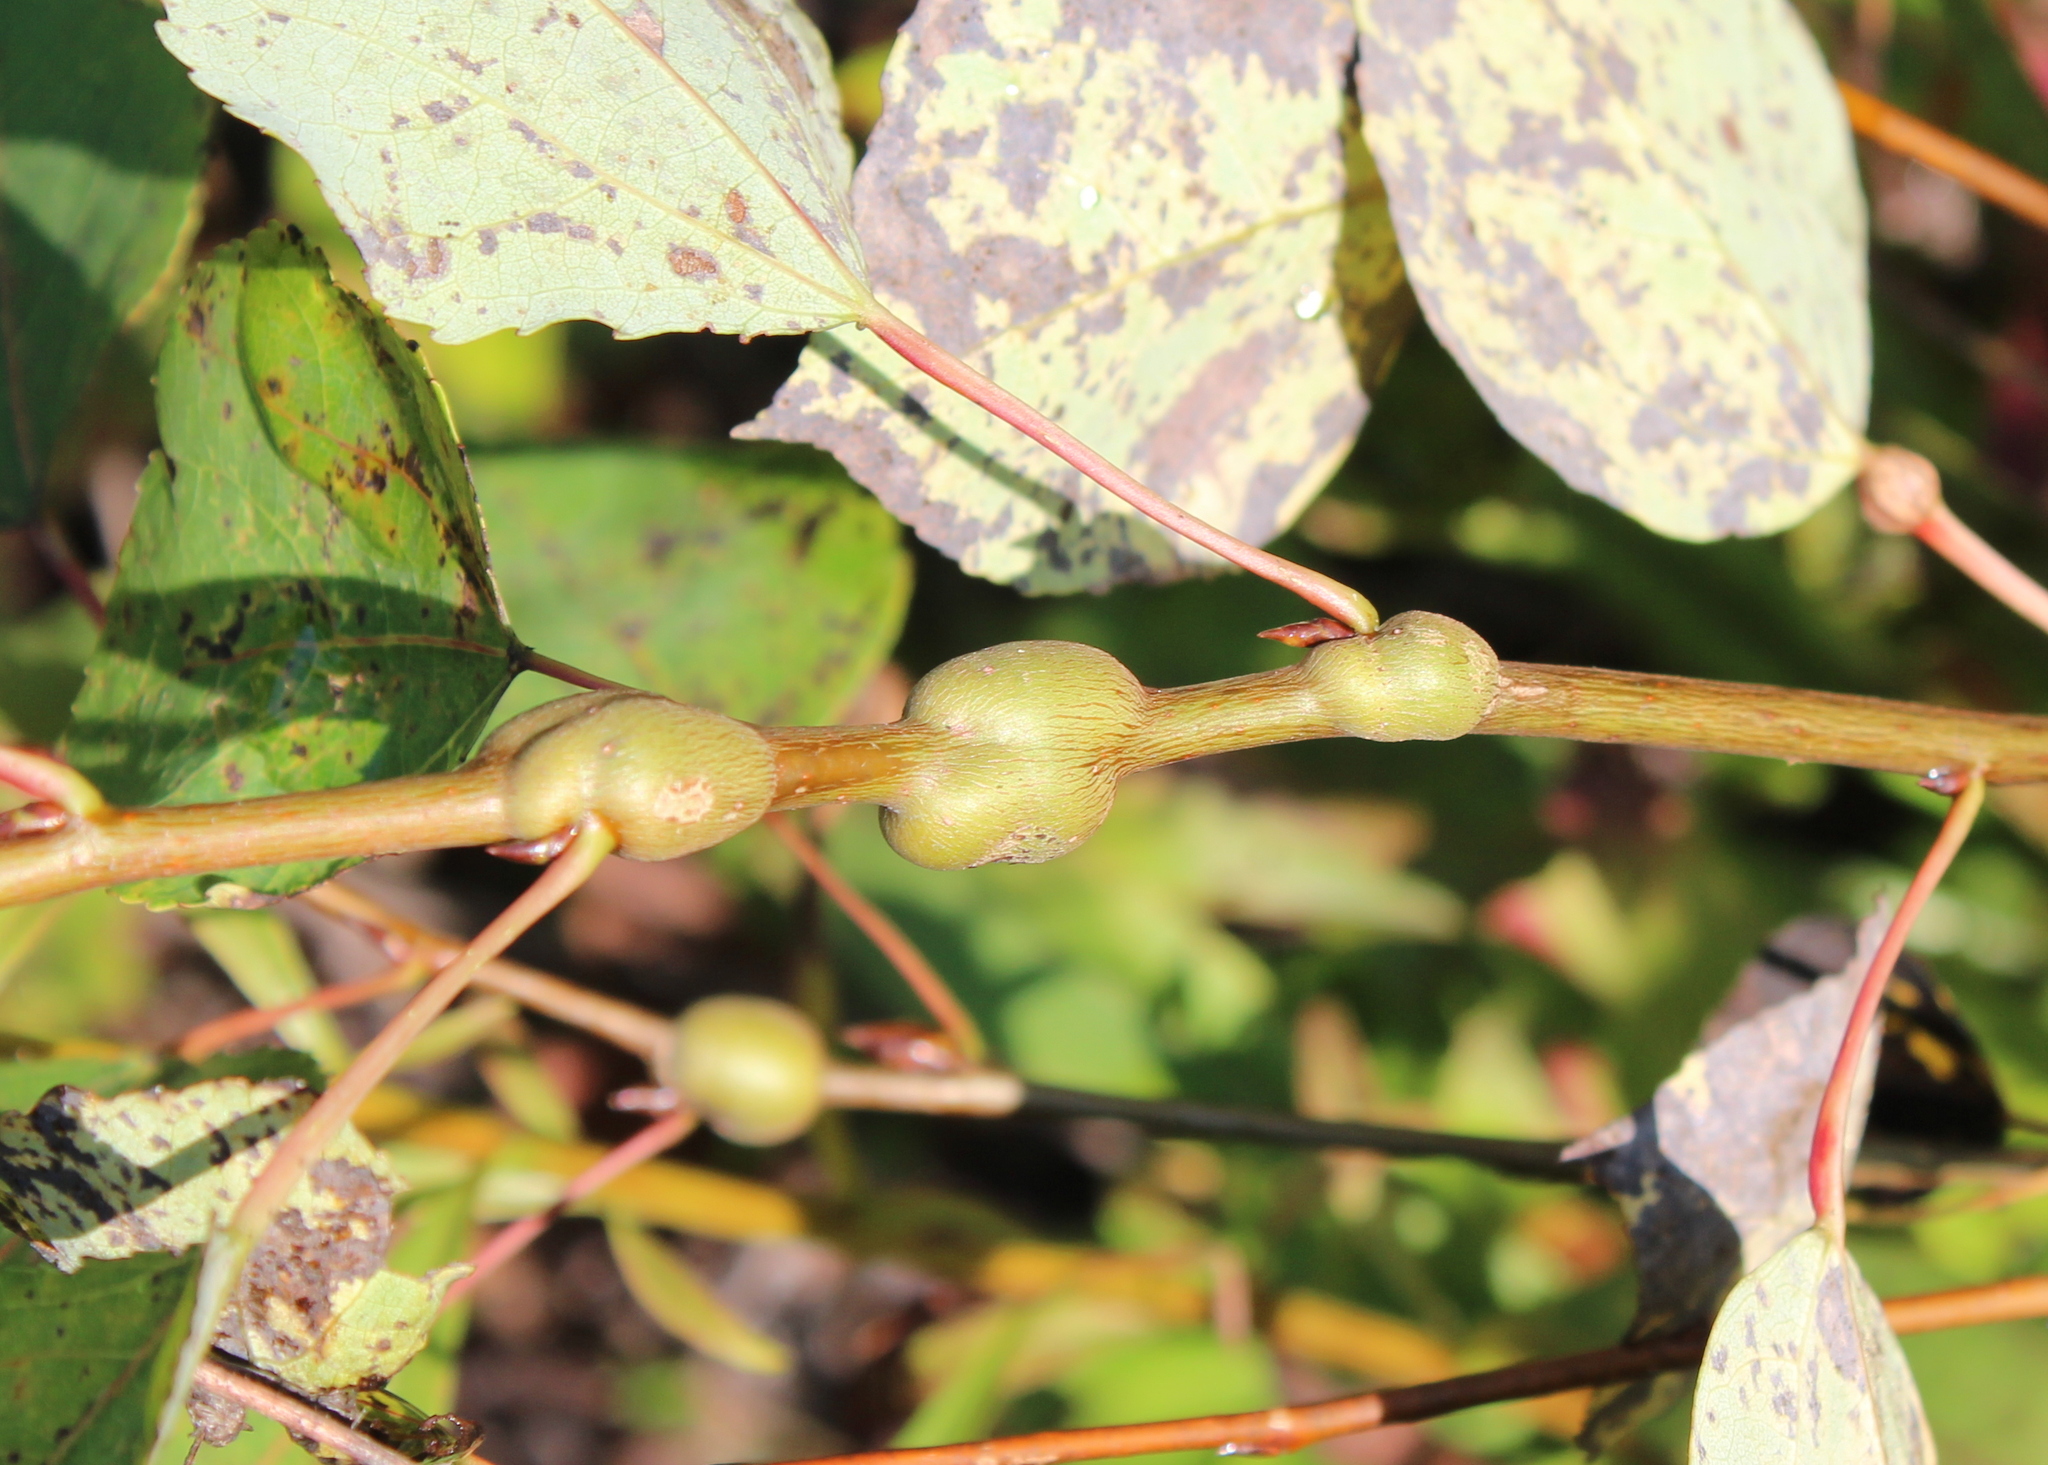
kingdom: Animalia
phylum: Arthropoda
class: Insecta
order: Diptera
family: Agromyzidae
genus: Euhexomyza
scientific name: Euhexomyza schineri
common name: Poplar twiggall fly
